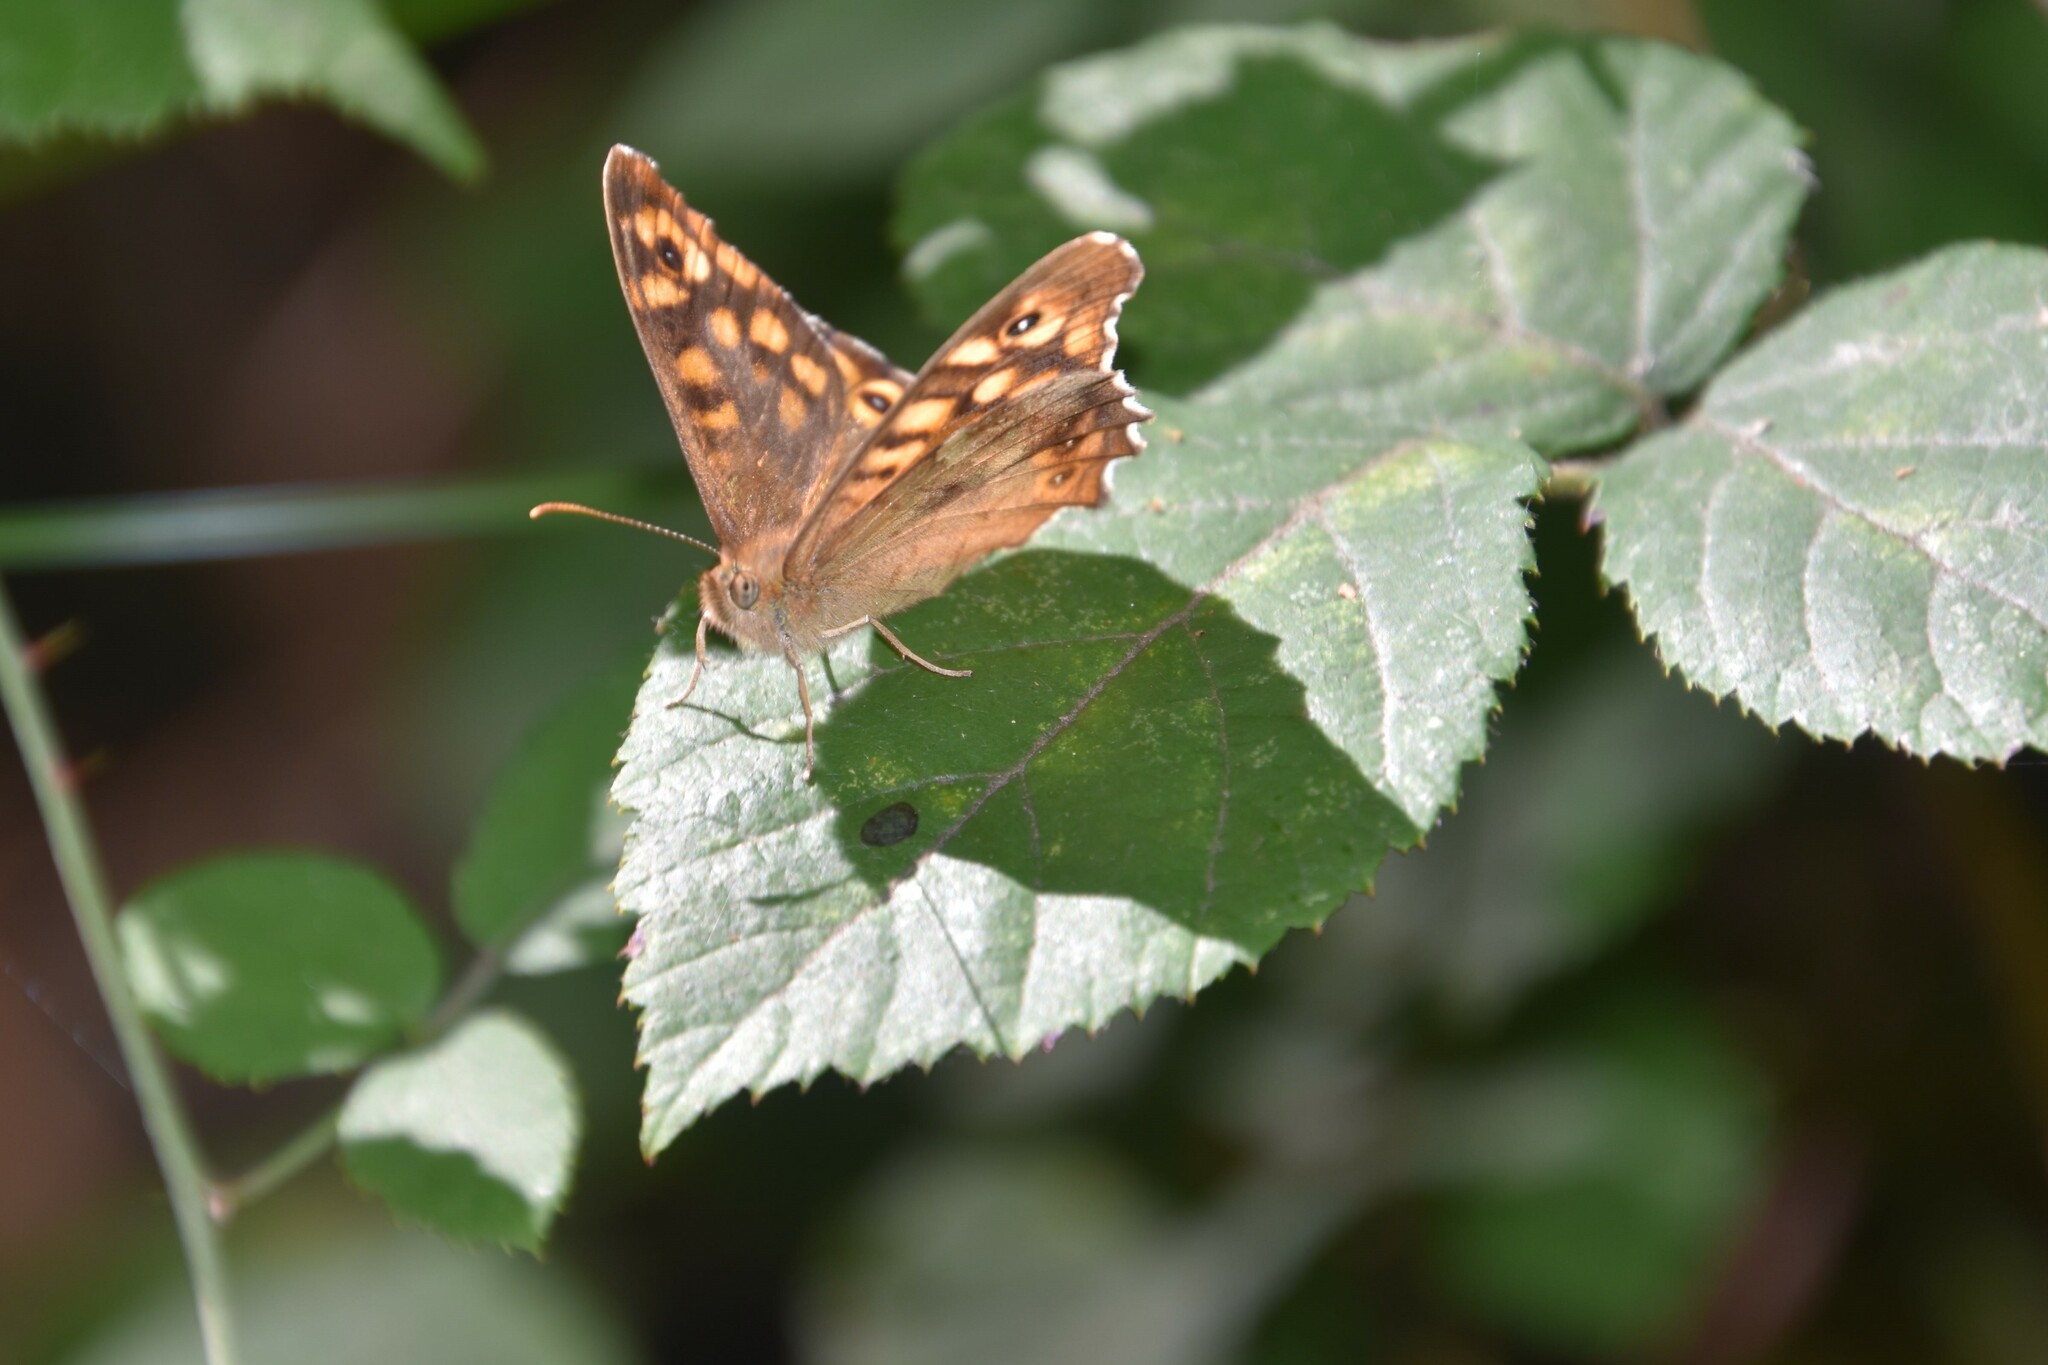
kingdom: Animalia
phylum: Arthropoda
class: Insecta
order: Lepidoptera
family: Nymphalidae
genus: Pararge
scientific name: Pararge aegeria
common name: Speckled wood
